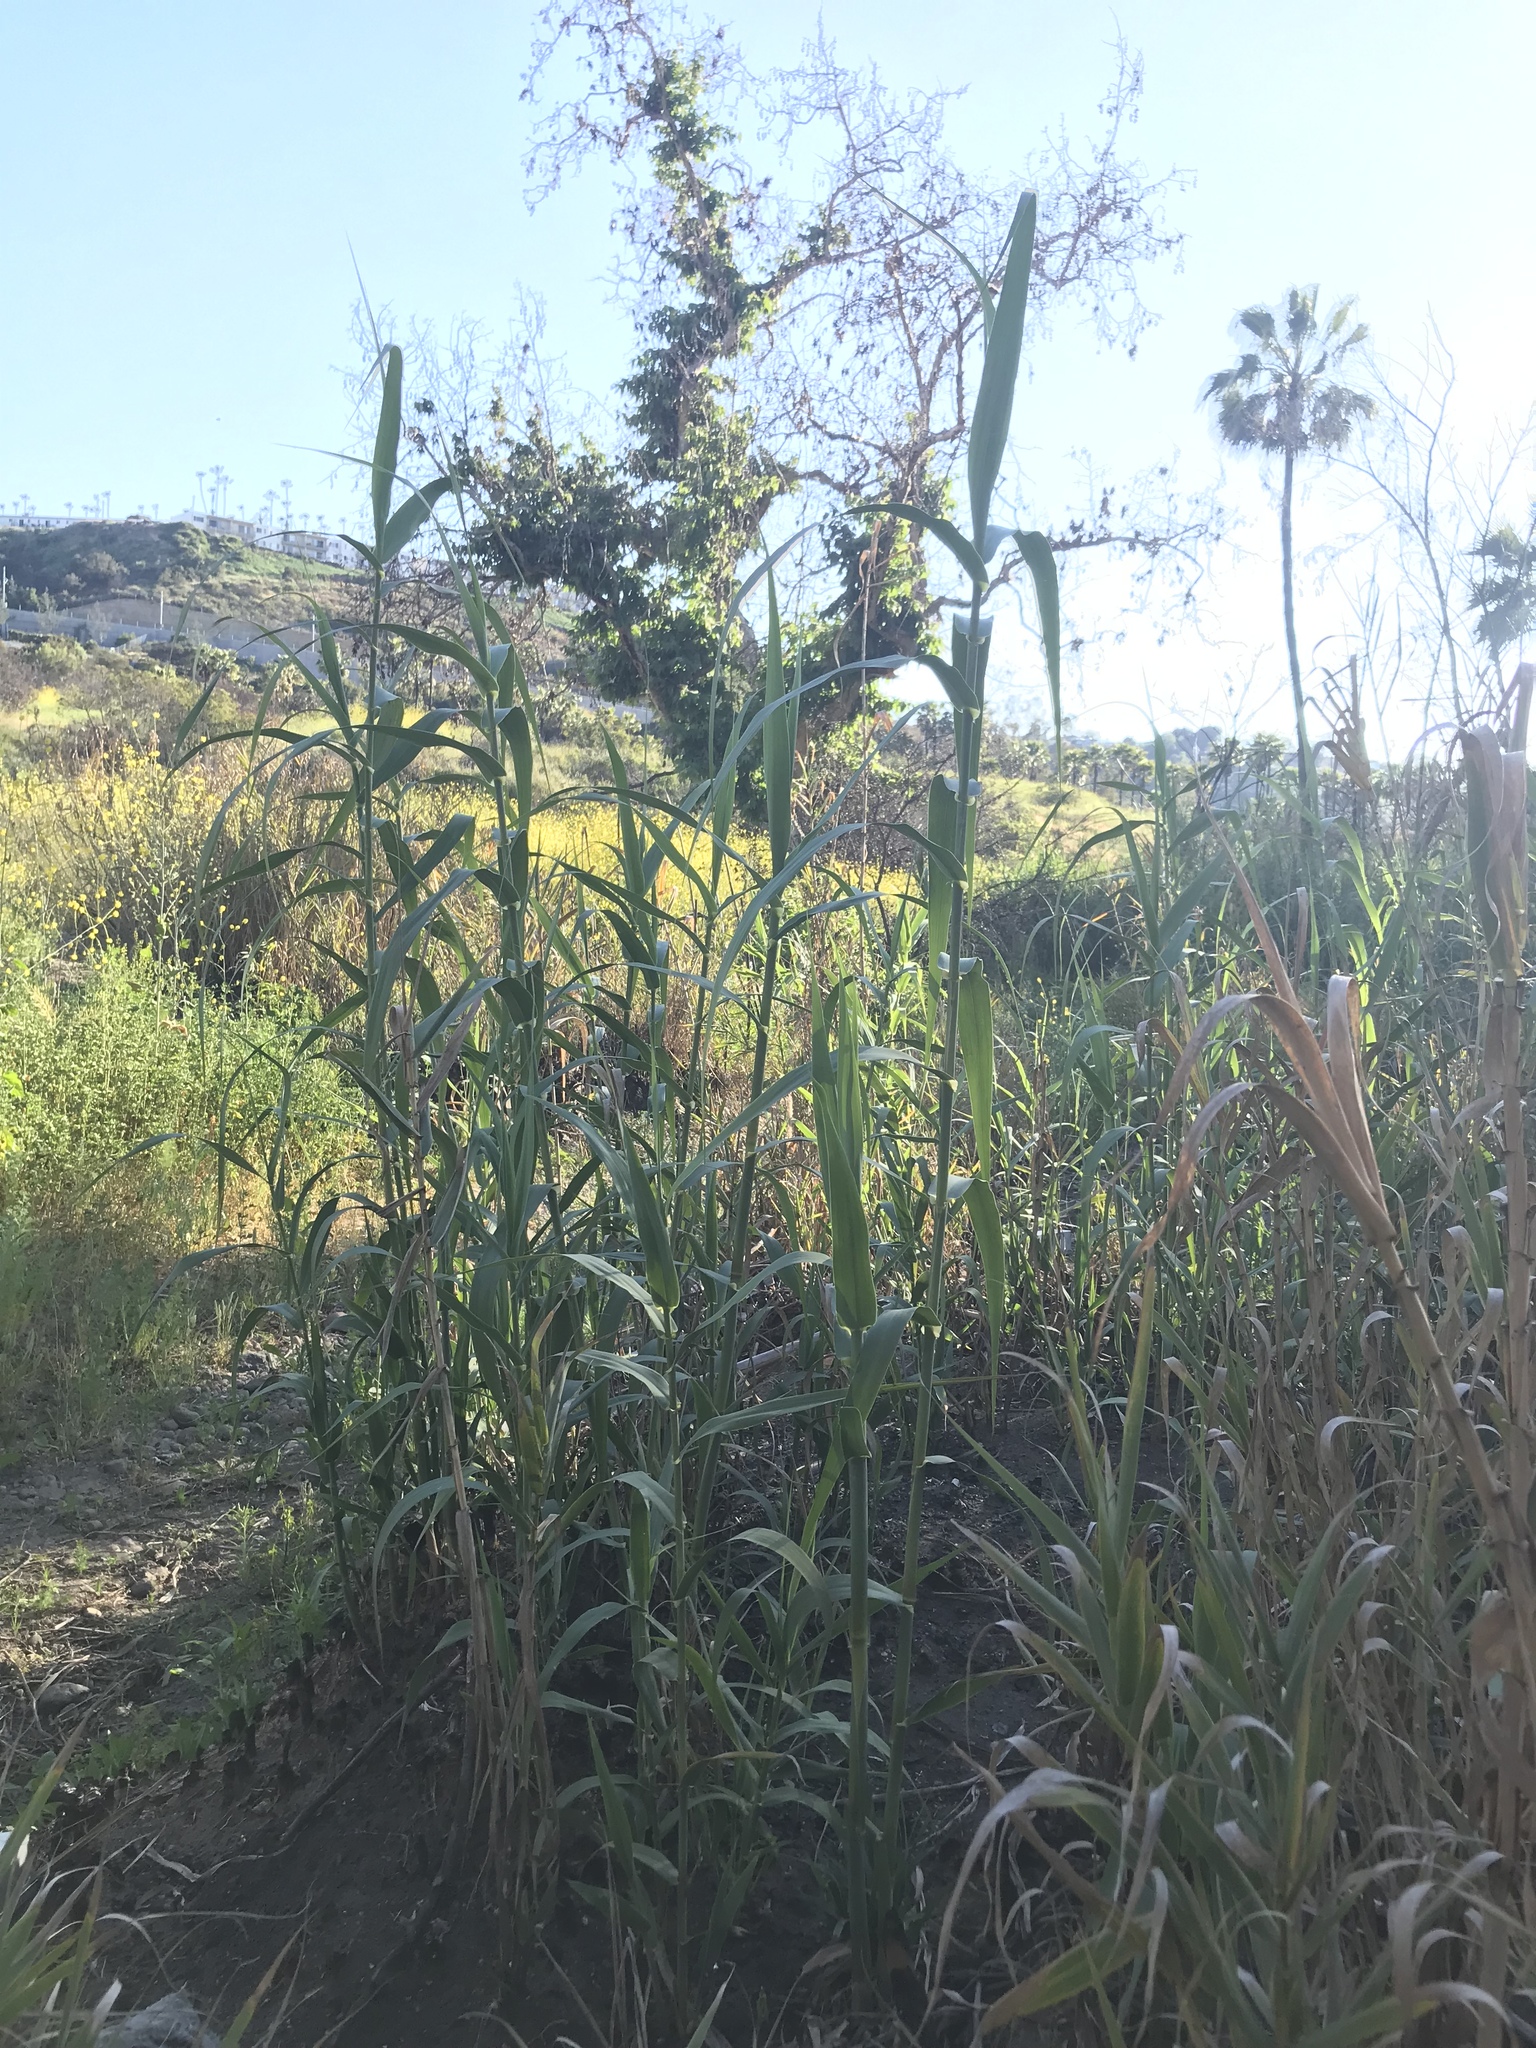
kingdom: Plantae
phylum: Tracheophyta
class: Liliopsida
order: Poales
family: Poaceae
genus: Arundo
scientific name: Arundo donax
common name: Giant reed
